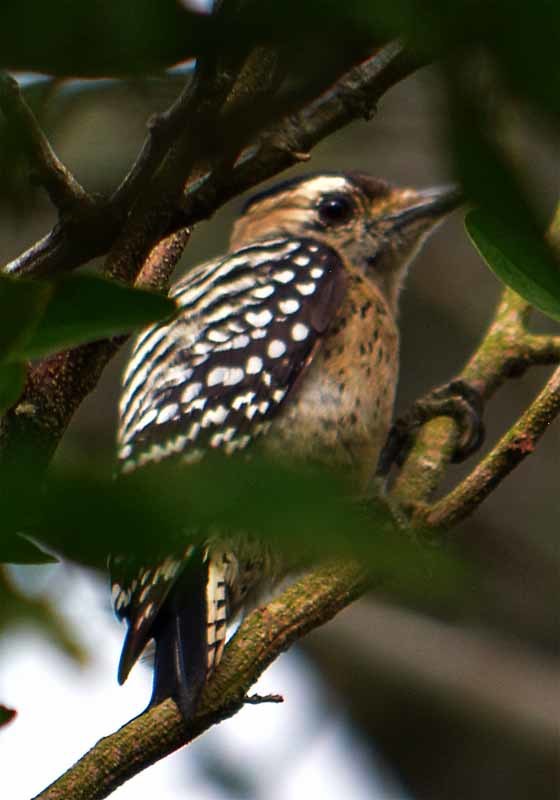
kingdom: Animalia
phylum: Chordata
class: Aves
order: Piciformes
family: Picidae
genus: Dryobates
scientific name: Dryobates scalaris
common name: Ladder-backed woodpecker
